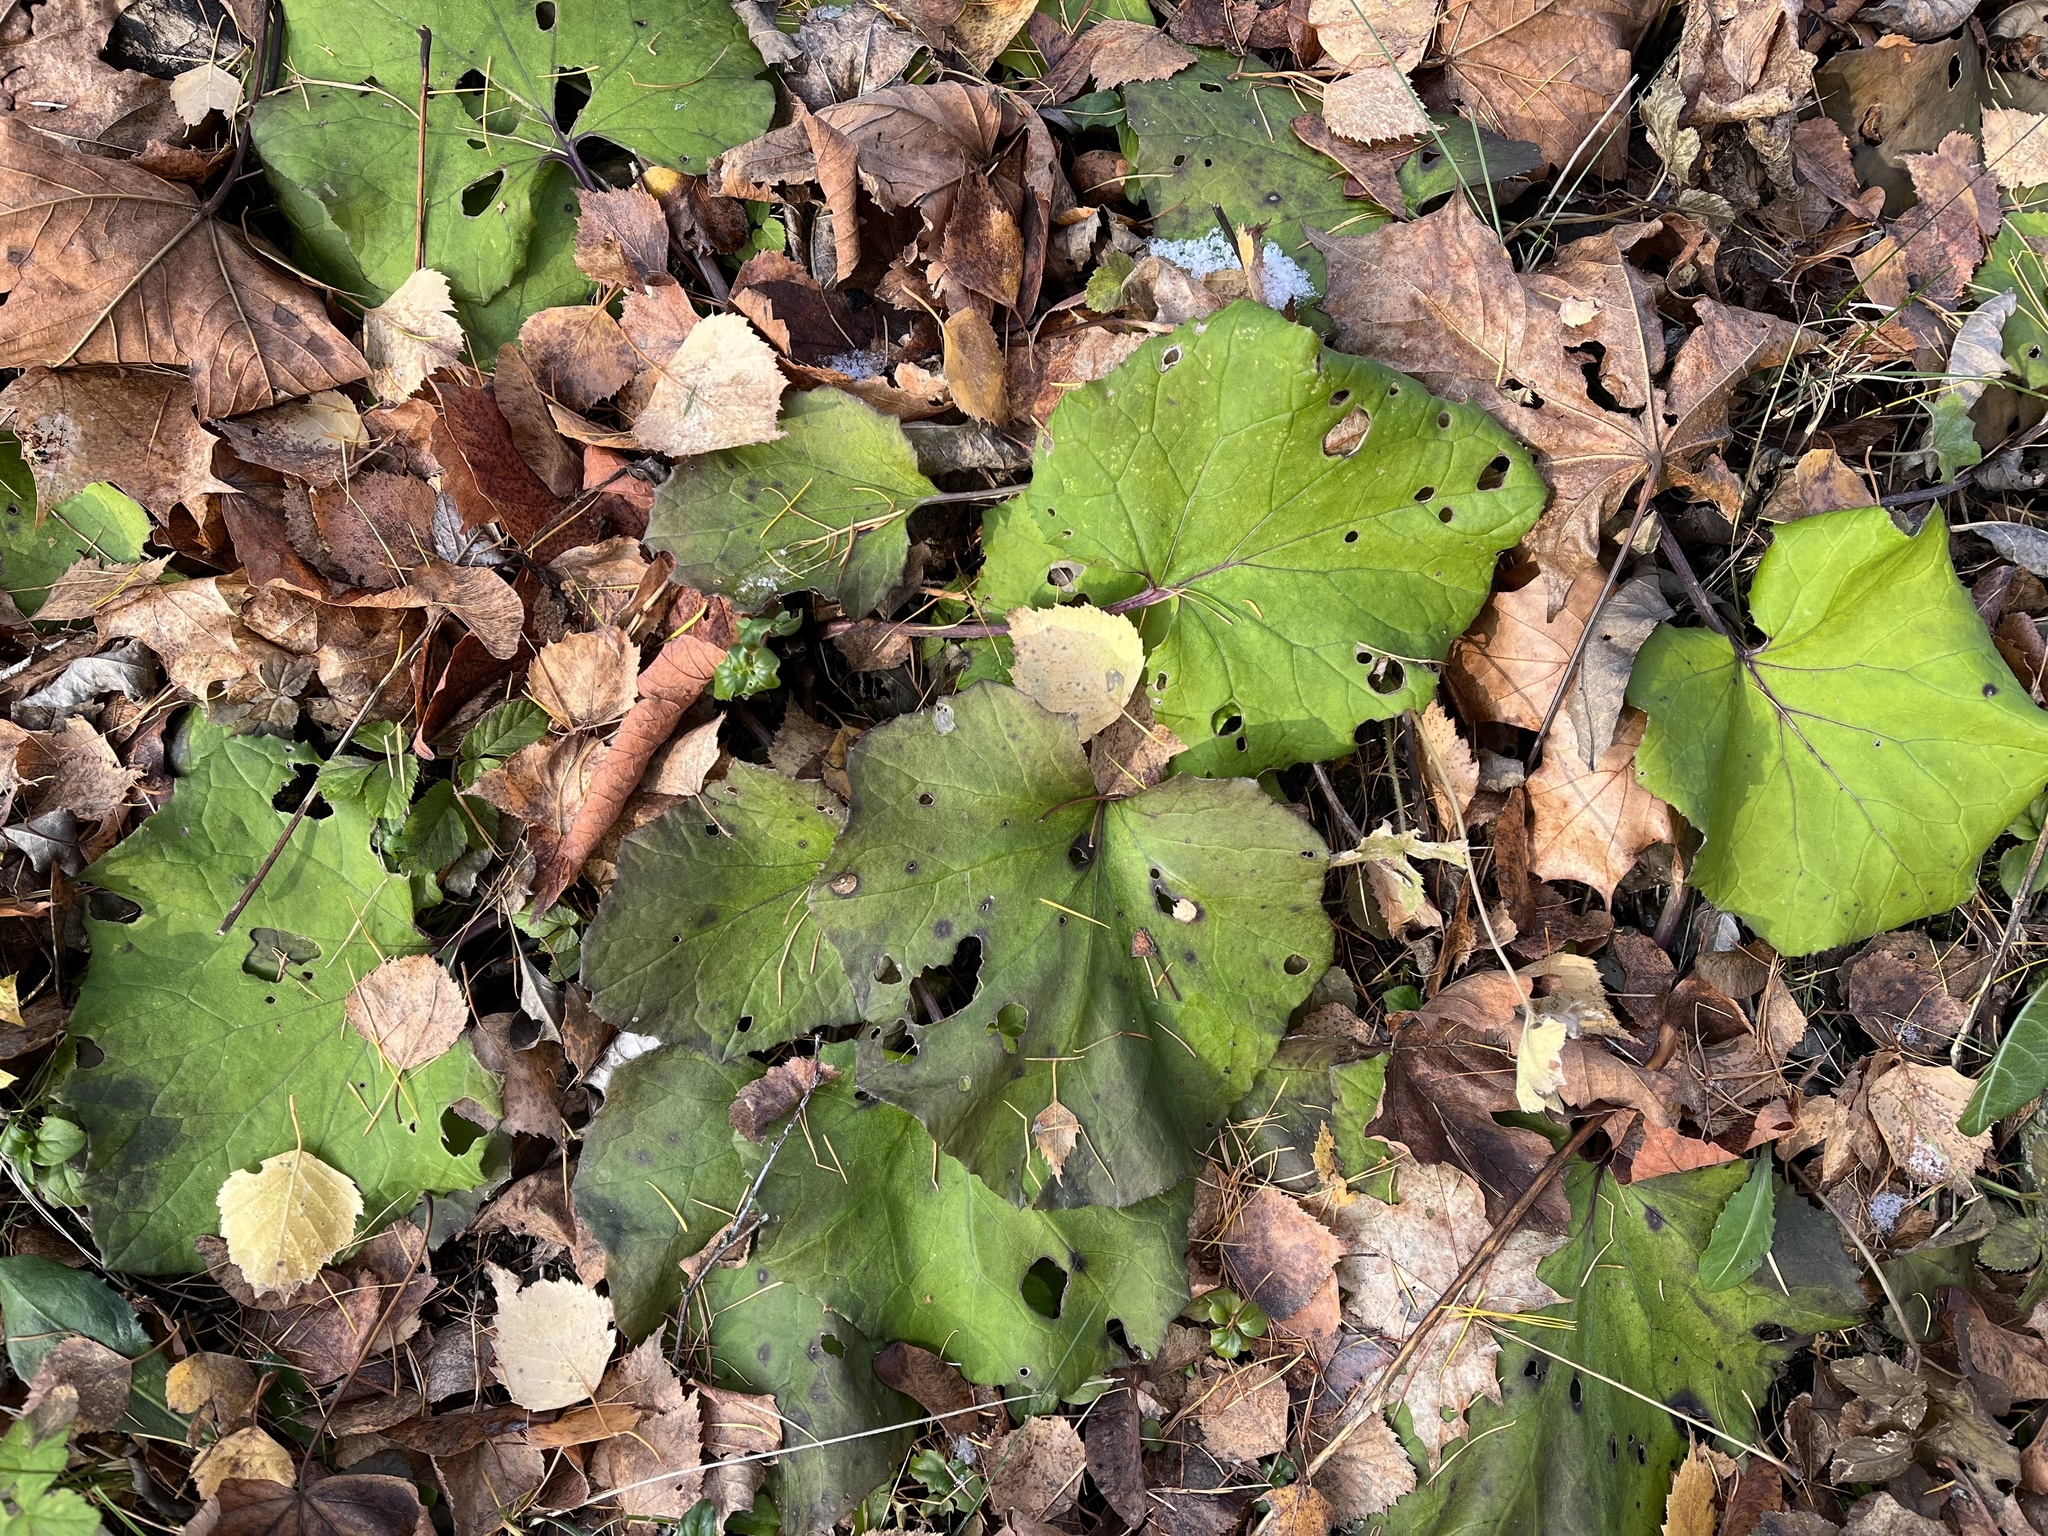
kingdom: Plantae
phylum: Tracheophyta
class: Magnoliopsida
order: Asterales
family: Asteraceae
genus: Tussilago
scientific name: Tussilago farfara
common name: Coltsfoot
